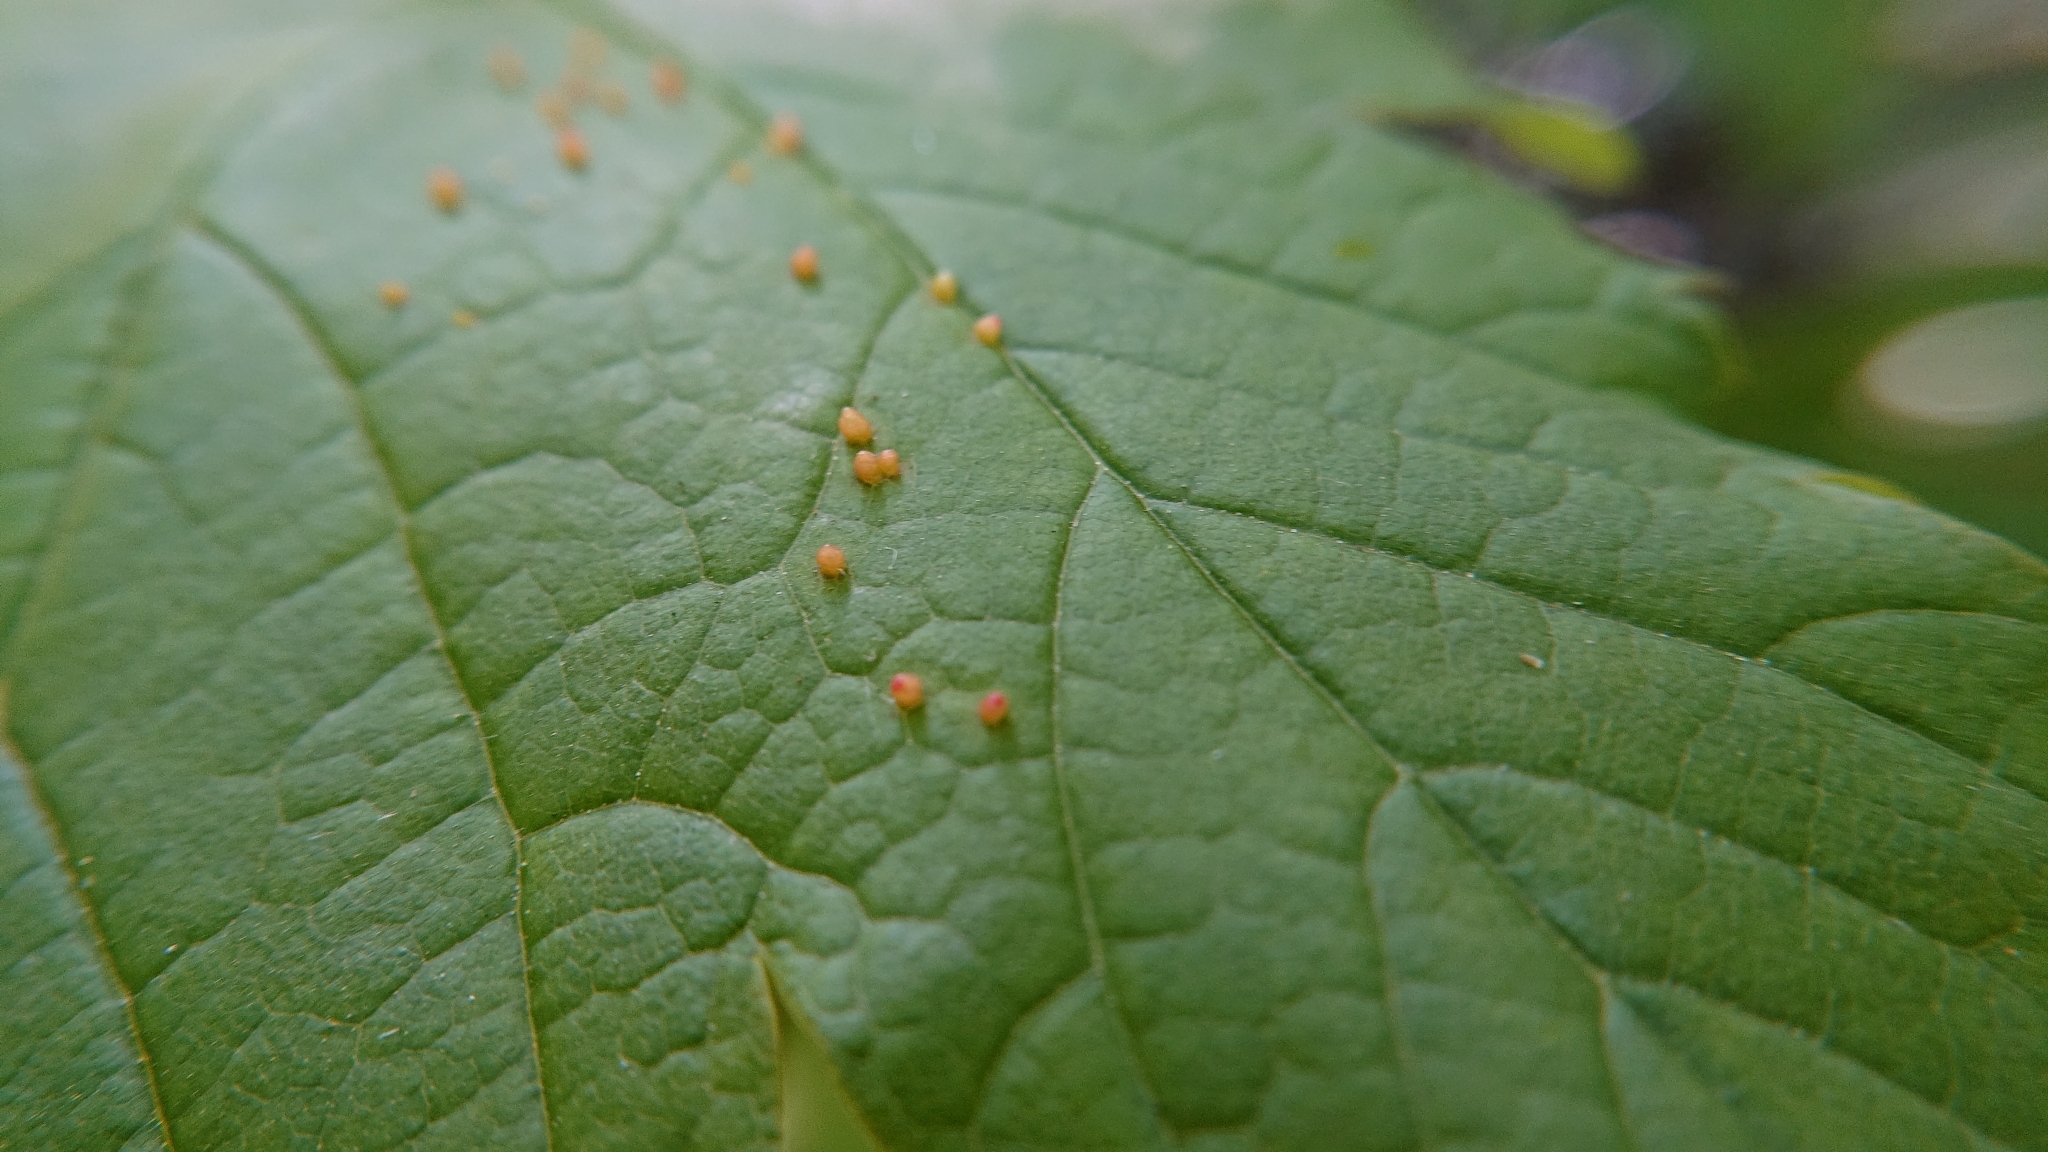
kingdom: Animalia
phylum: Arthropoda
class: Arachnida
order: Trombidiformes
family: Eriophyidae
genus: Aceria
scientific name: Aceria cephaloneus
